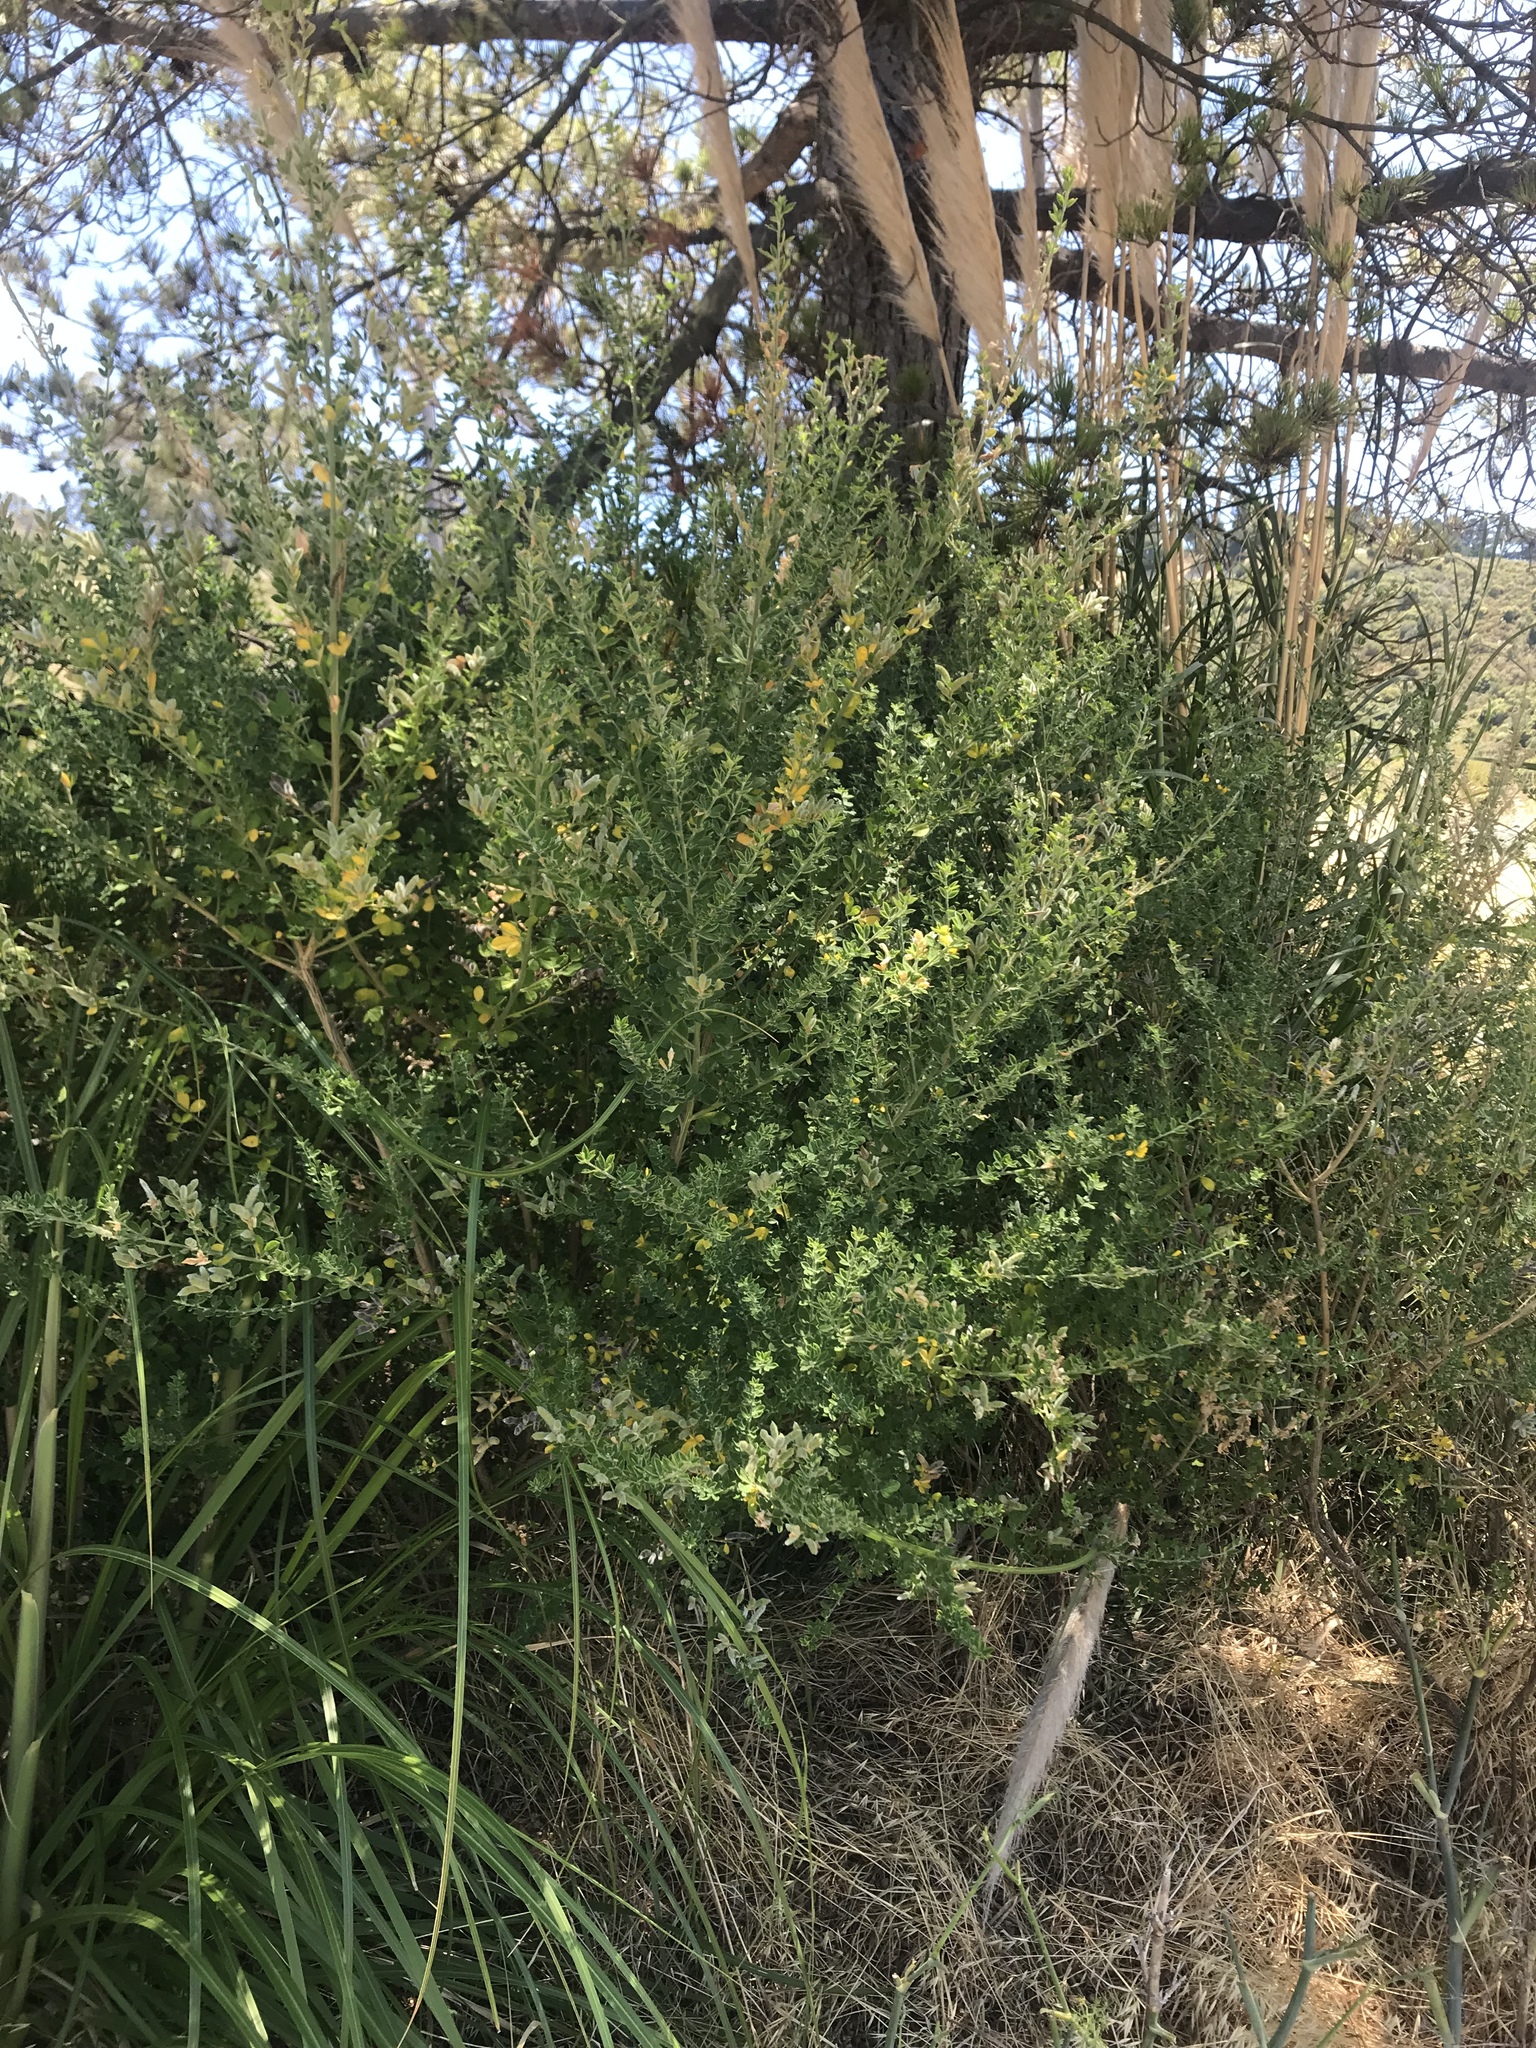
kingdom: Plantae
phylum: Tracheophyta
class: Magnoliopsida
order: Fabales
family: Fabaceae
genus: Genista
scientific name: Genista monspessulana
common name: Montpellier broom
